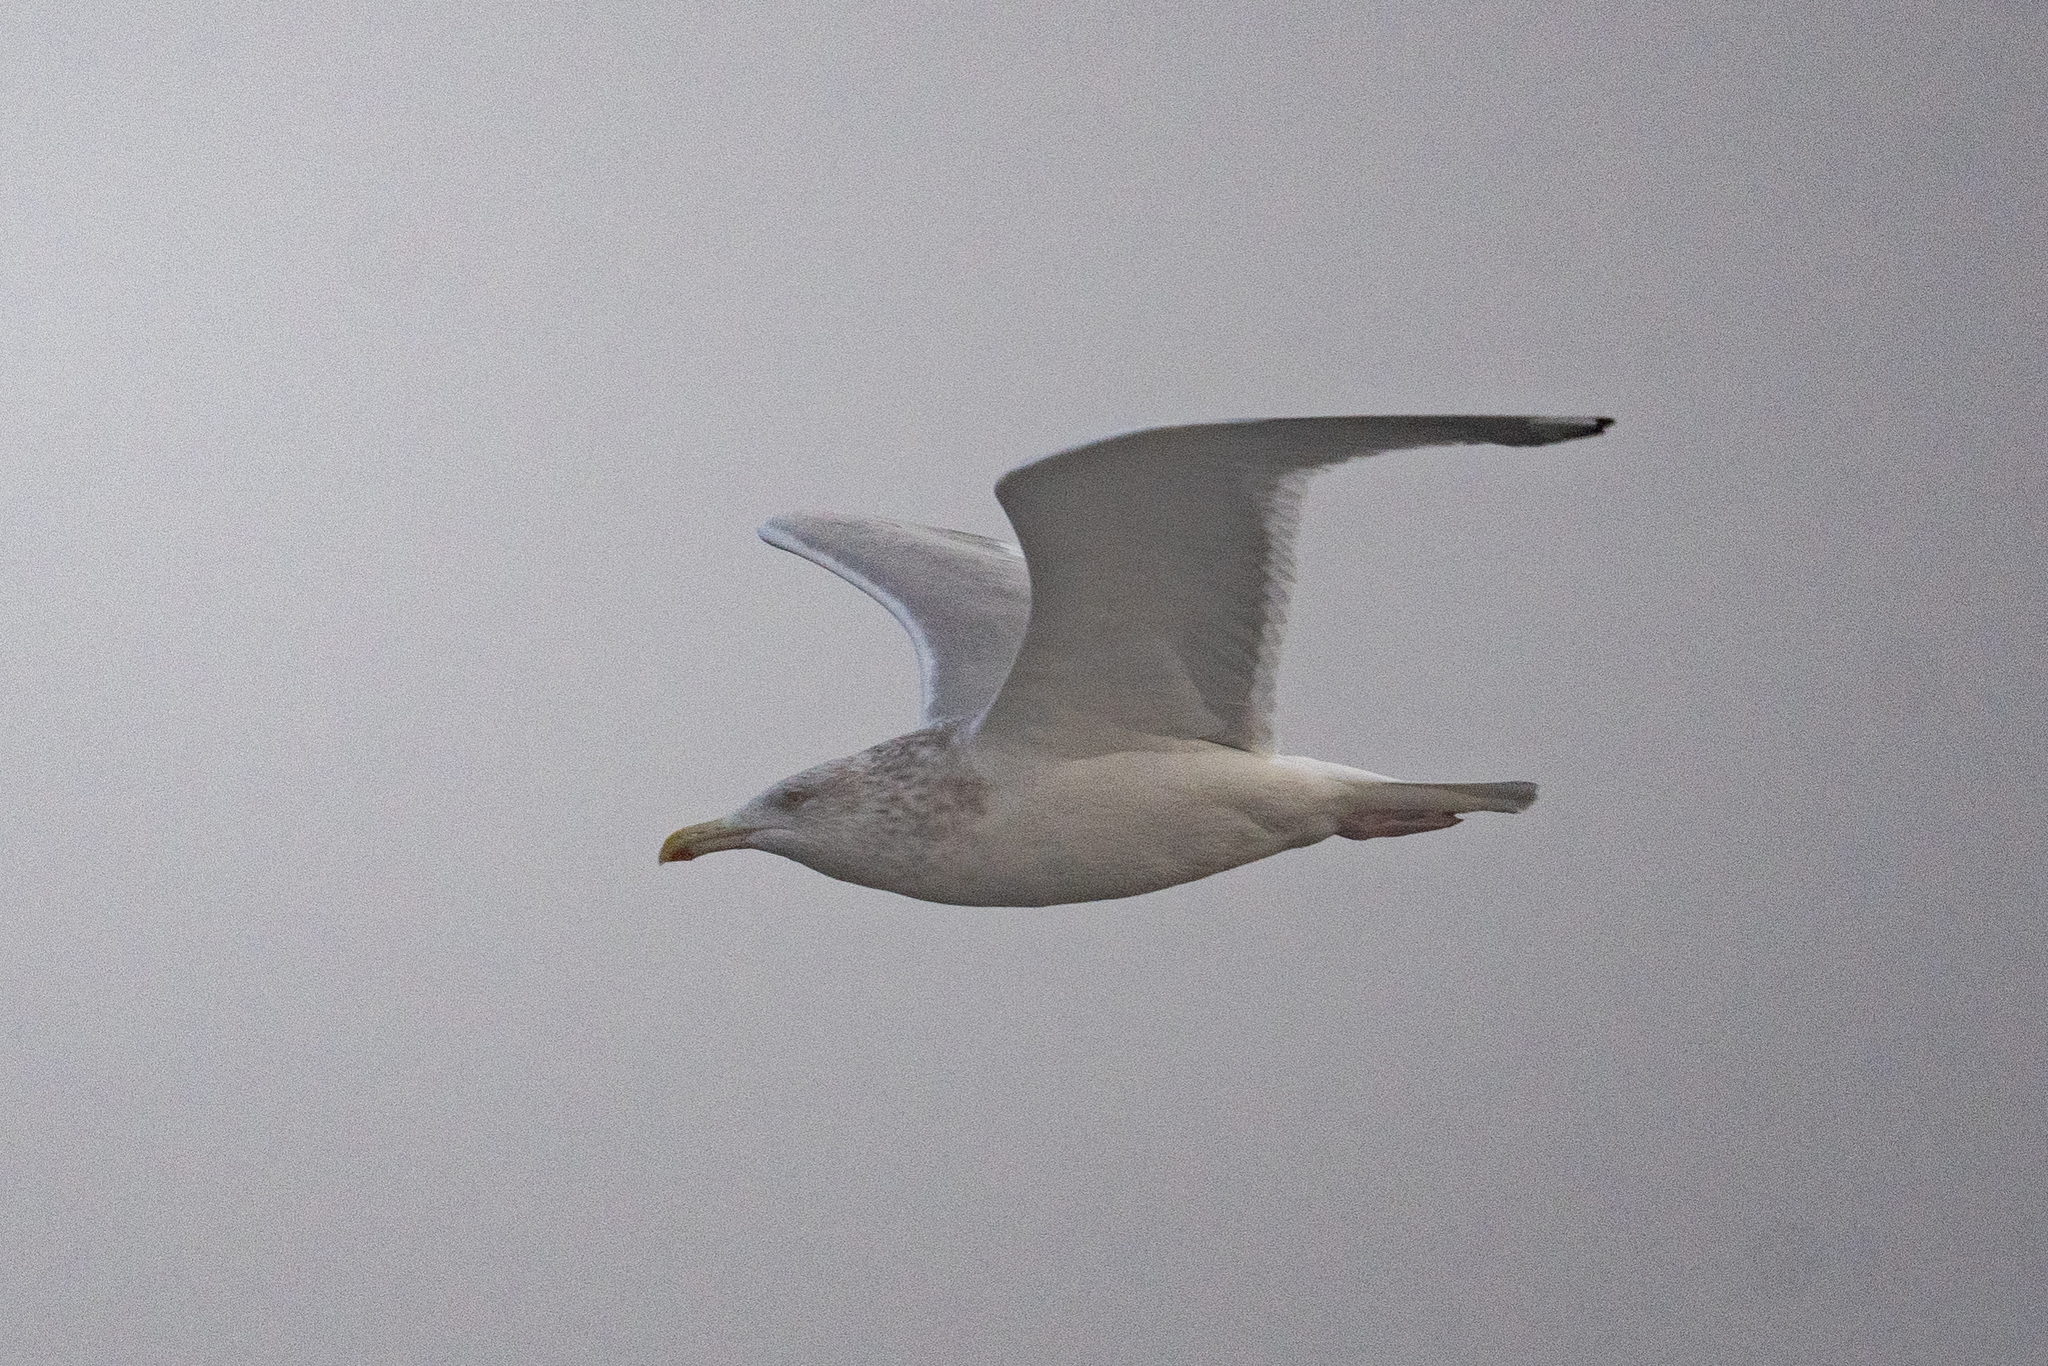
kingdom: Animalia
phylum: Chordata
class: Aves
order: Charadriiformes
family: Laridae
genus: Larus
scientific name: Larus argentatus
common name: Herring gull
